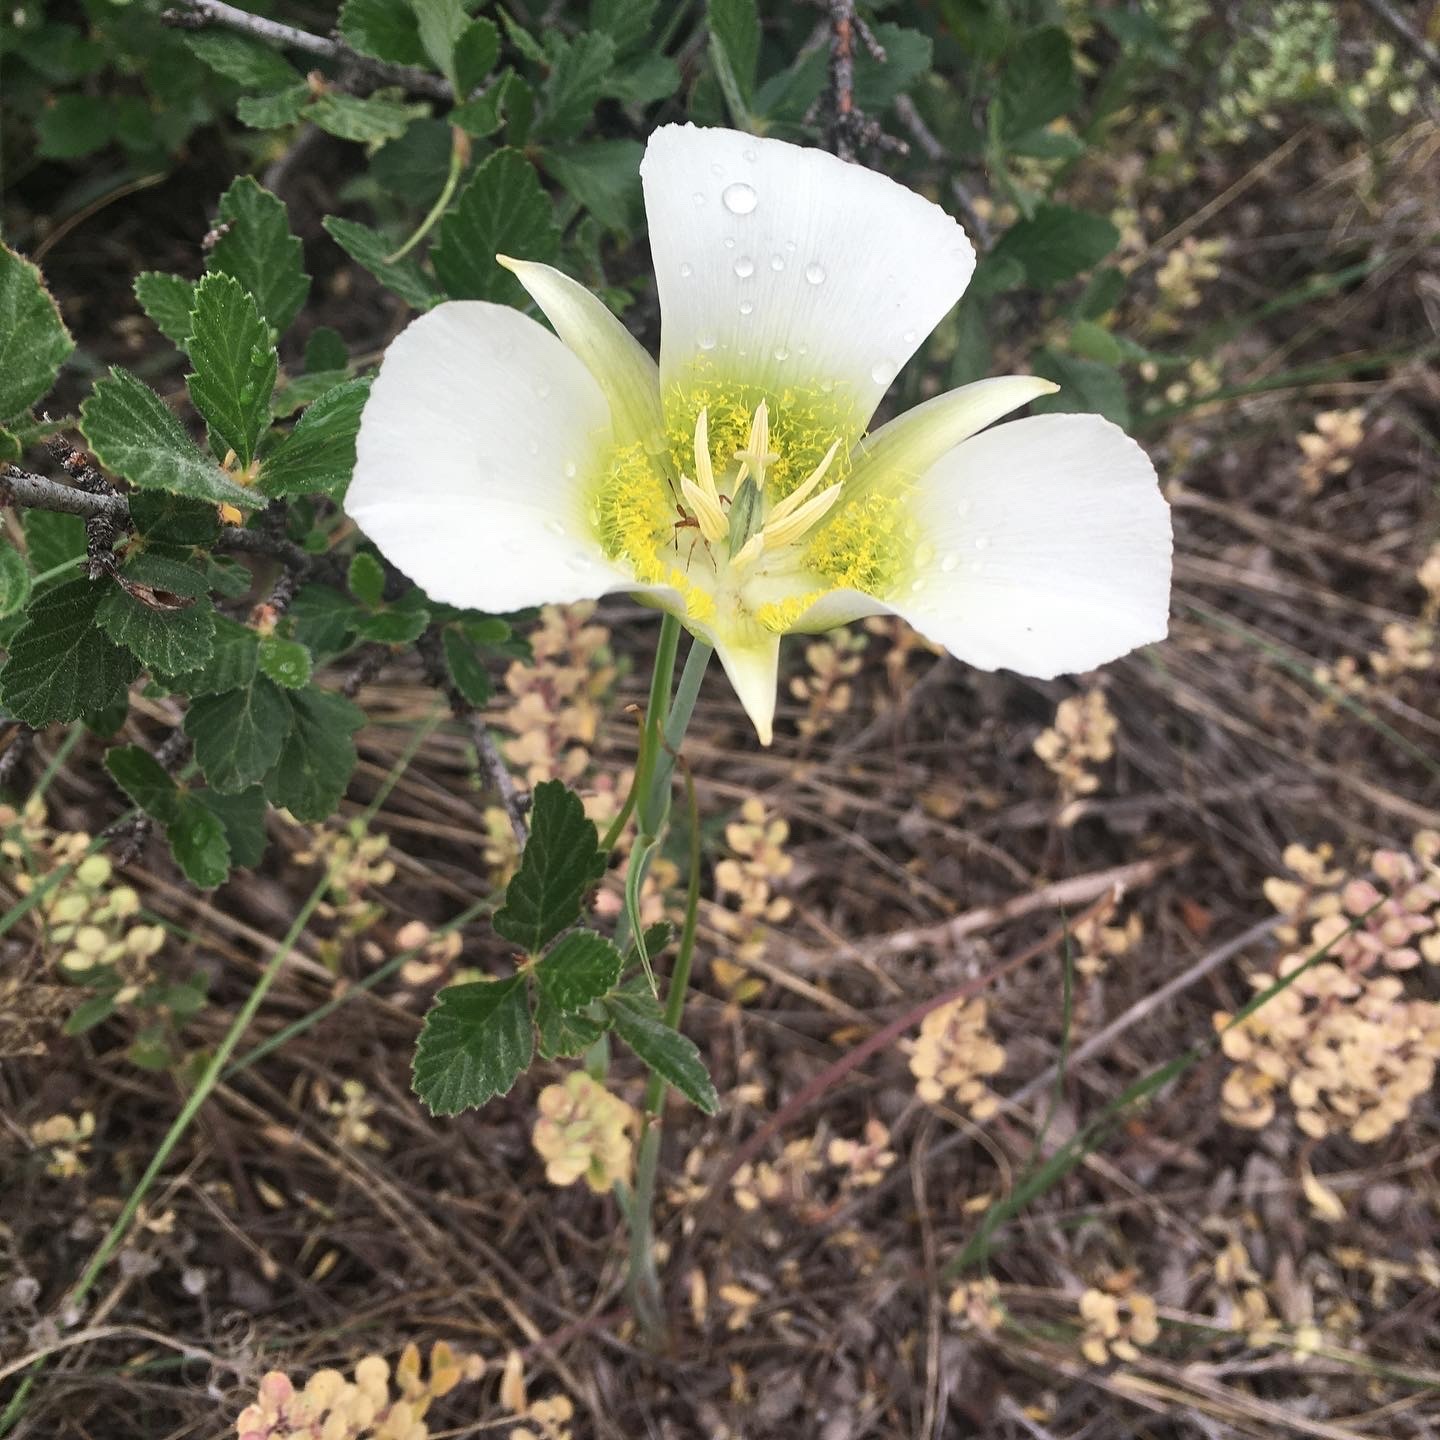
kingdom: Plantae
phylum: Tracheophyta
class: Liliopsida
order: Liliales
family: Liliaceae
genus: Calochortus
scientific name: Calochortus gunnisonii
